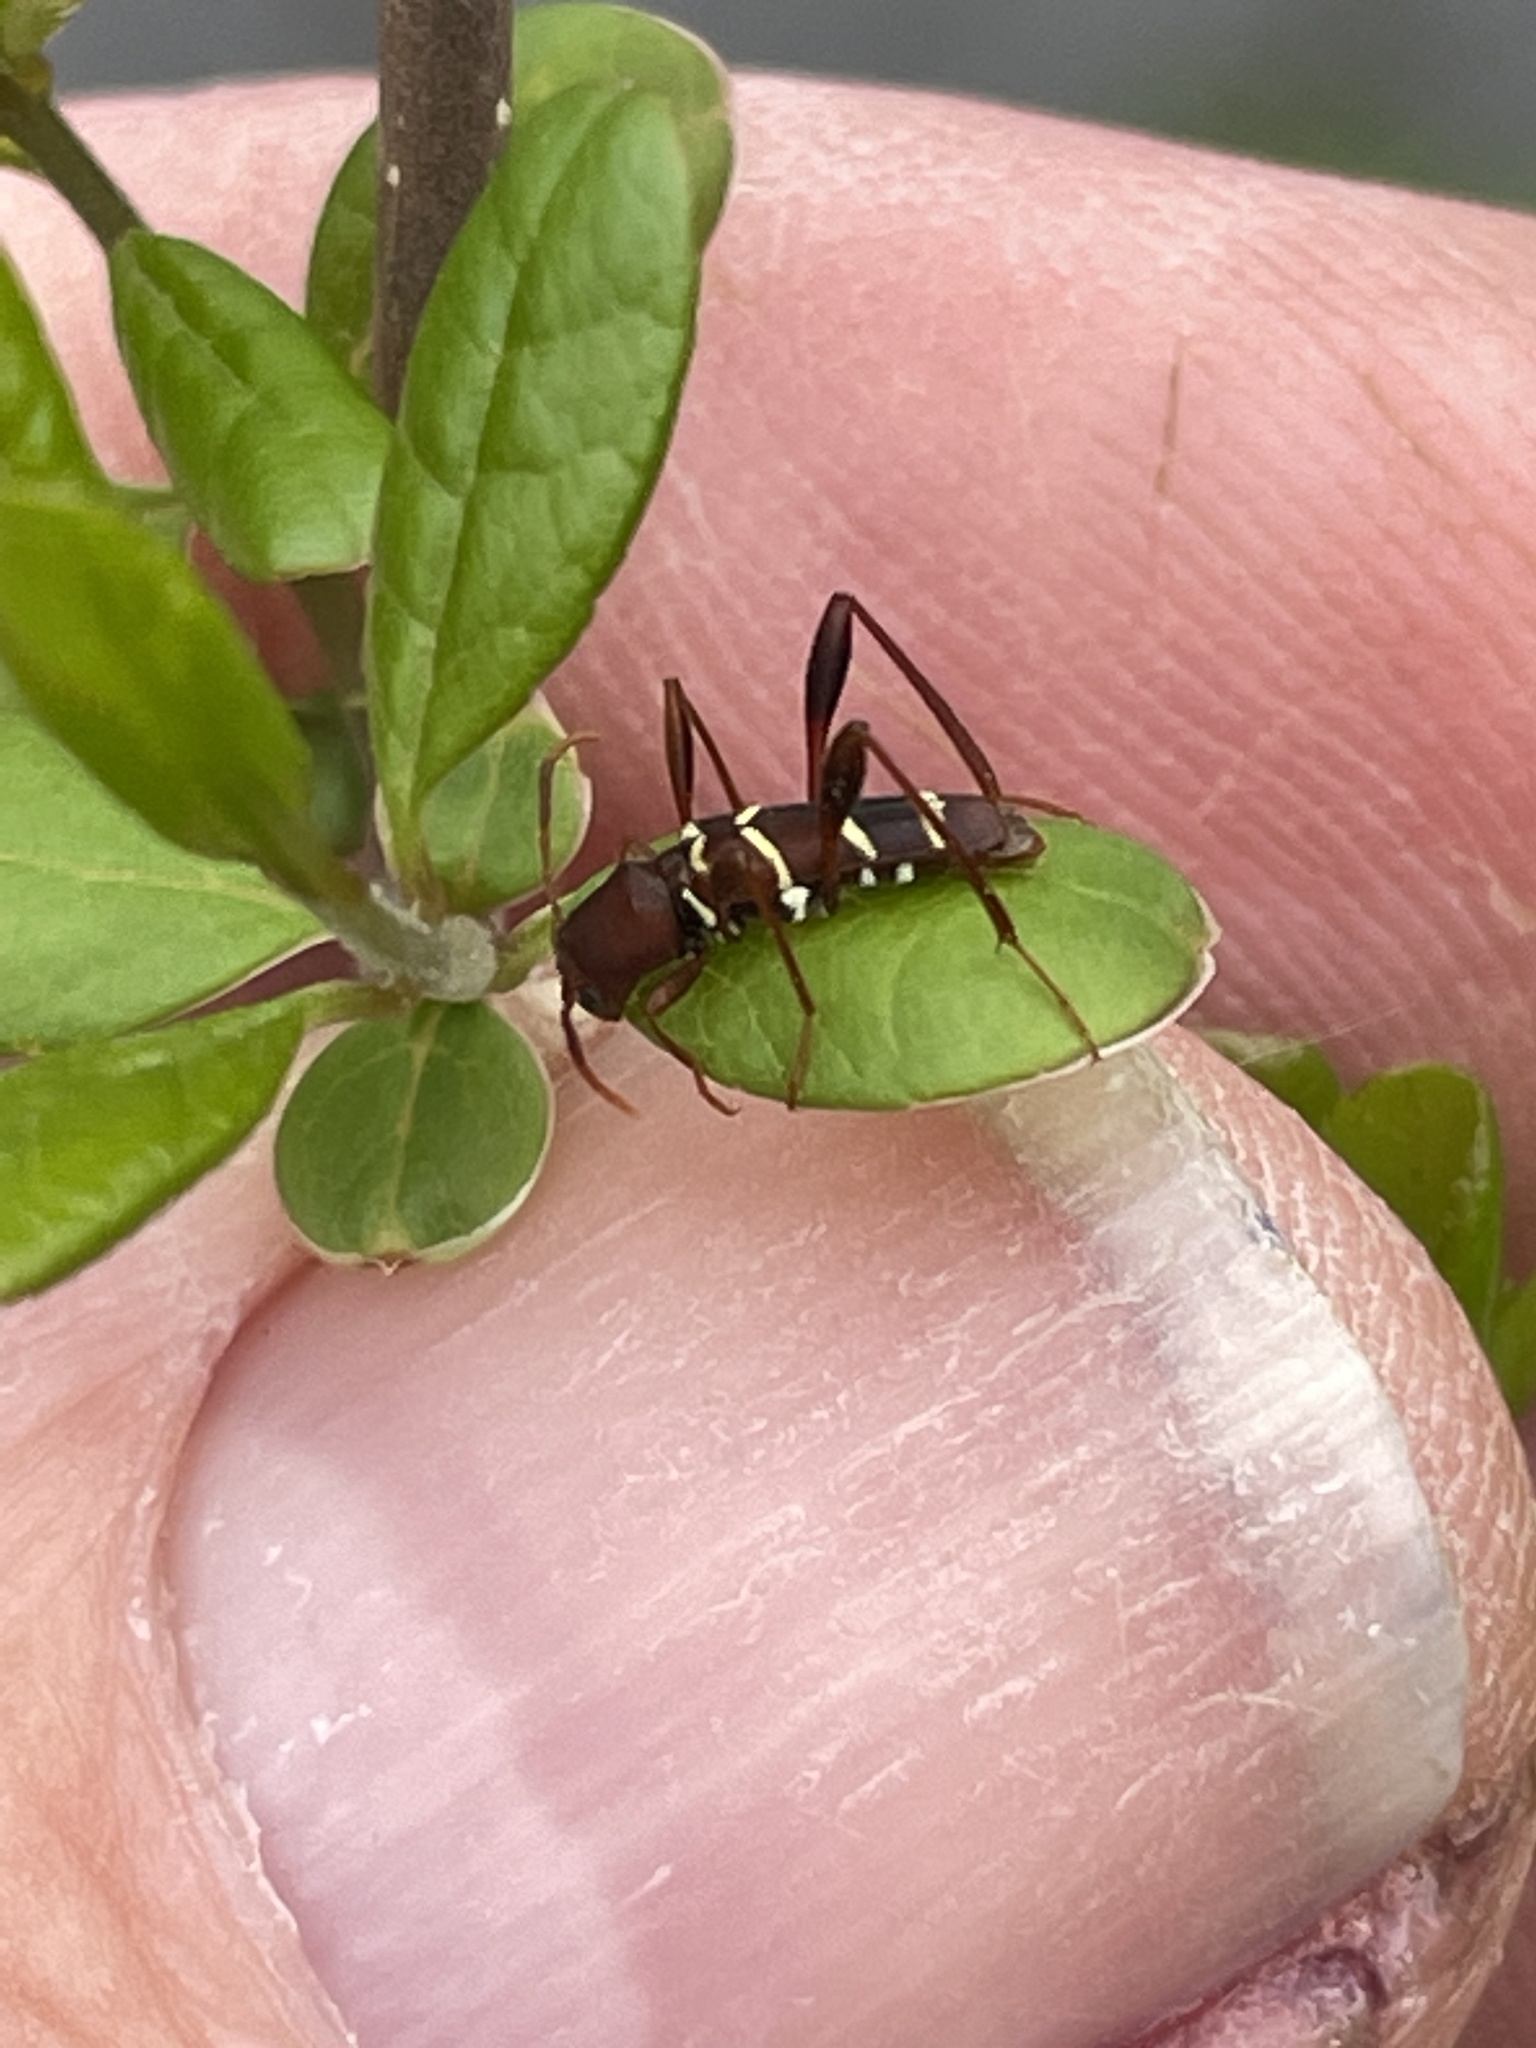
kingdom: Animalia
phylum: Arthropoda
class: Insecta
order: Coleoptera
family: Cerambycidae
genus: Neoclytus
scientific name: Neoclytus acuminatus
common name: Read-headed ash borer
